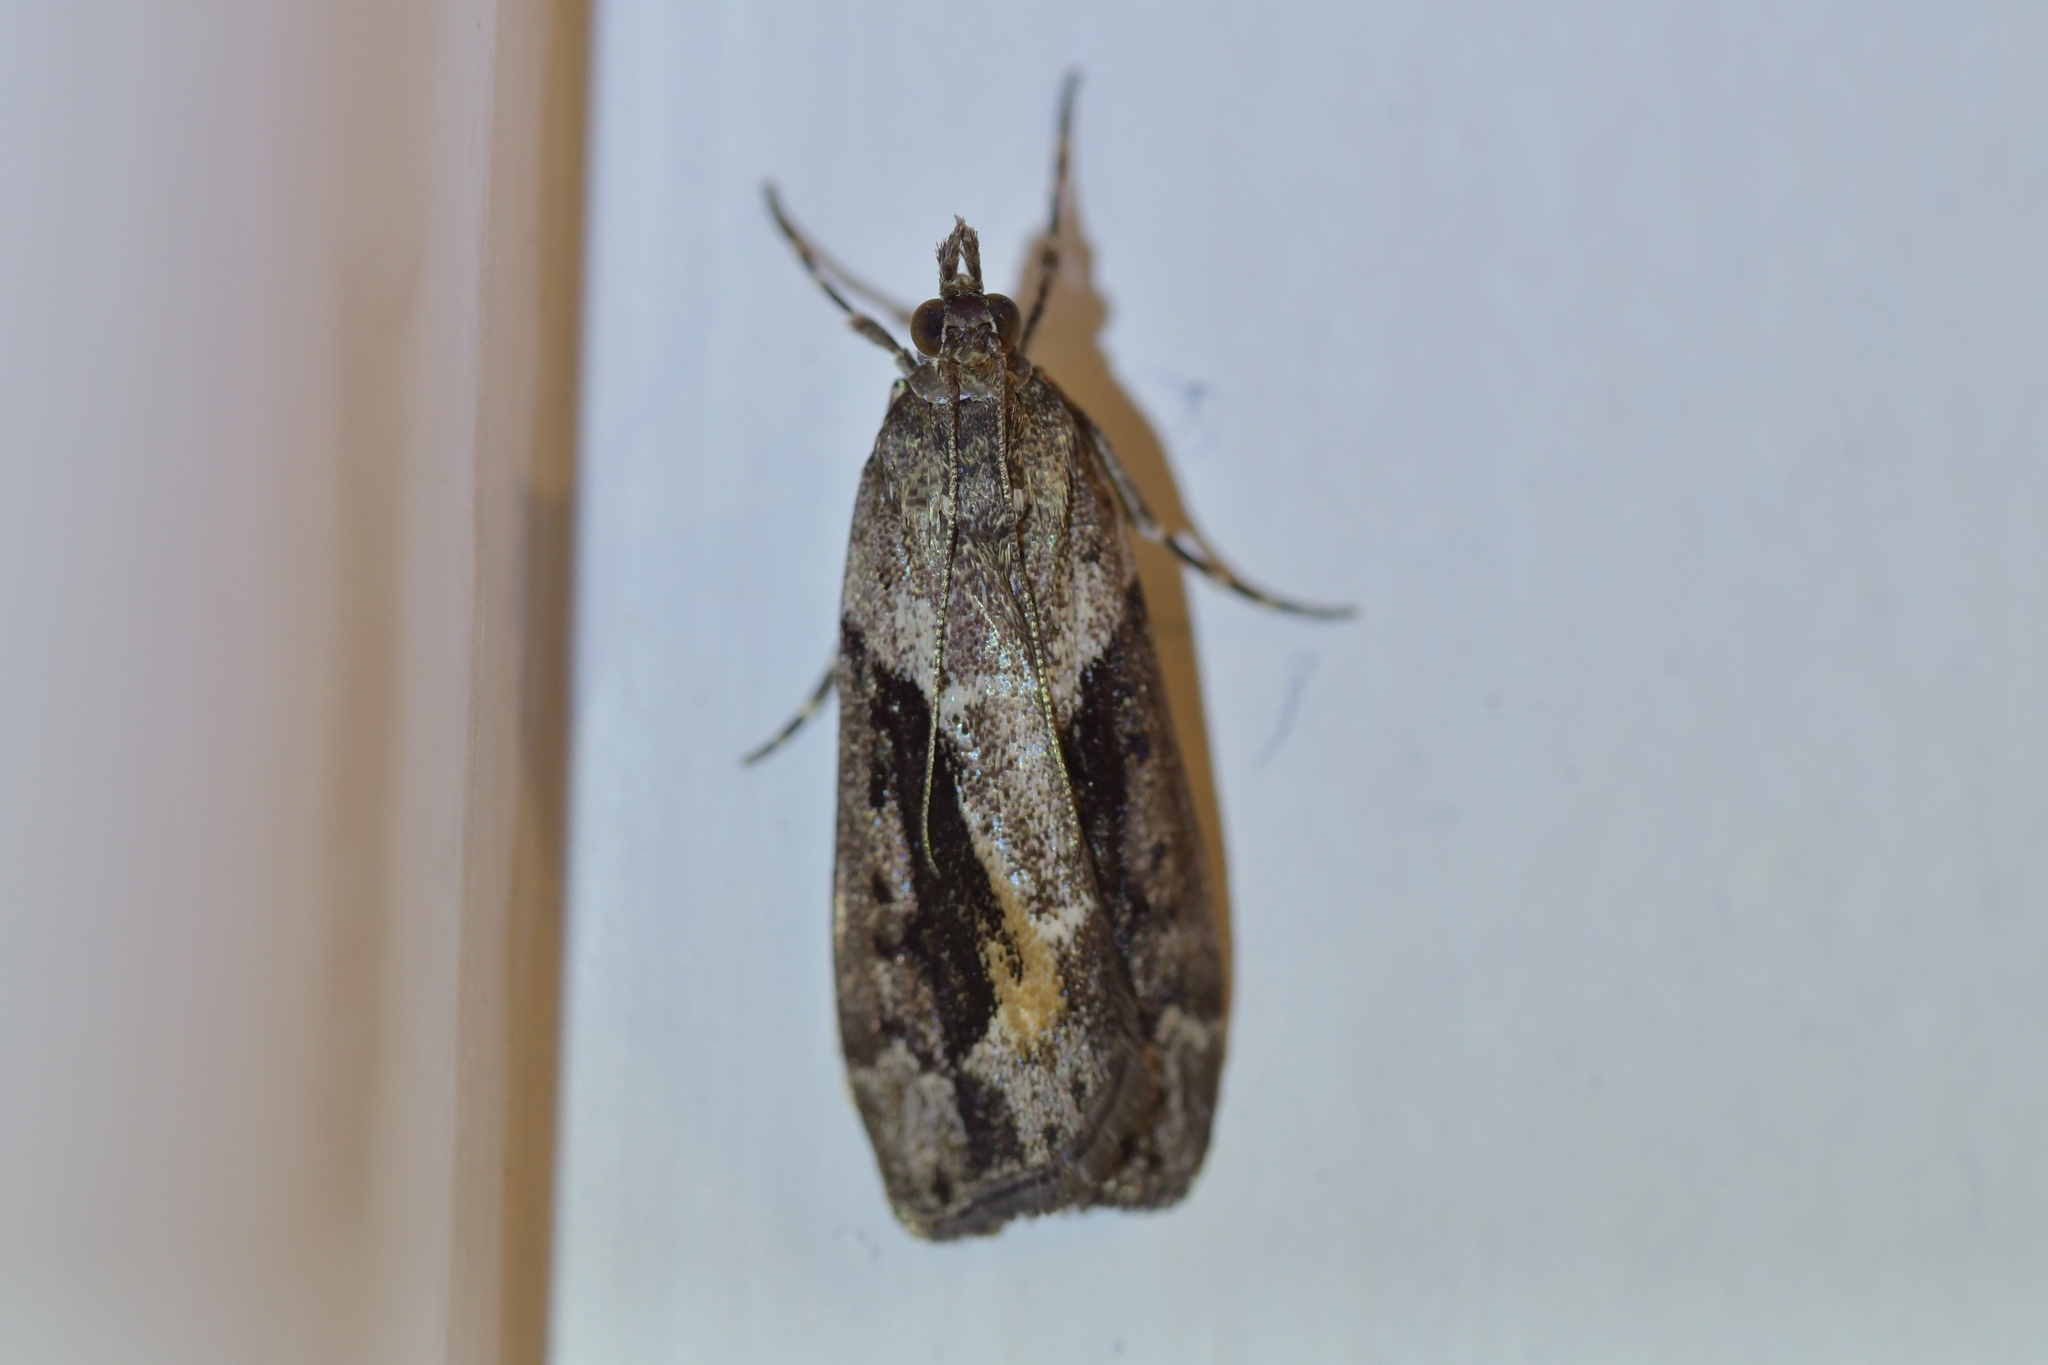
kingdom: Animalia
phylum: Arthropoda
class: Insecta
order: Lepidoptera
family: Crambidae
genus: Eudonia
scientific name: Eudonia submarginalis
